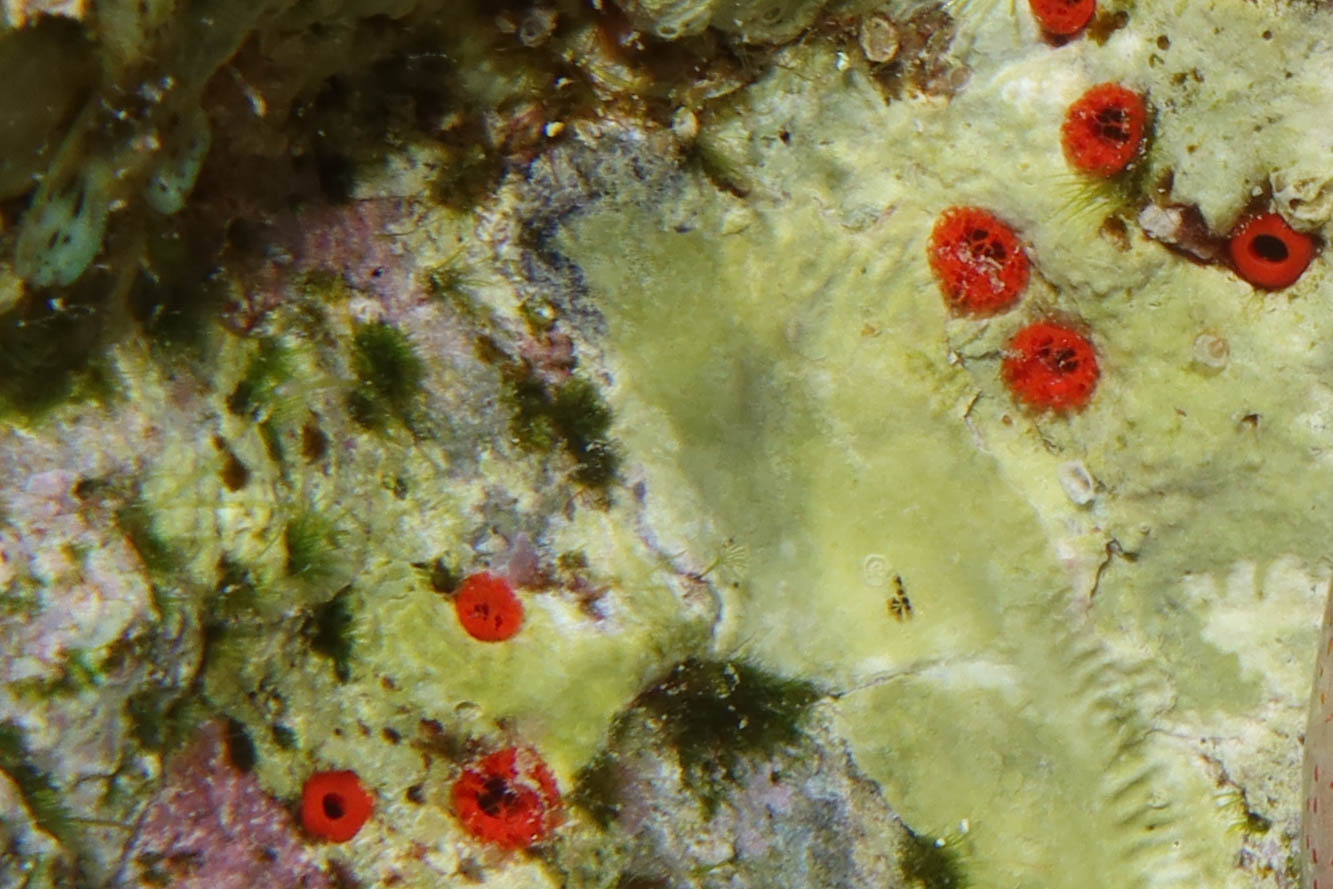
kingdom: Animalia
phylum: Porifera
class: Demospongiae
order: Clionaida
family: Clionaidae
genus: Pione
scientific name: Pione mussae
